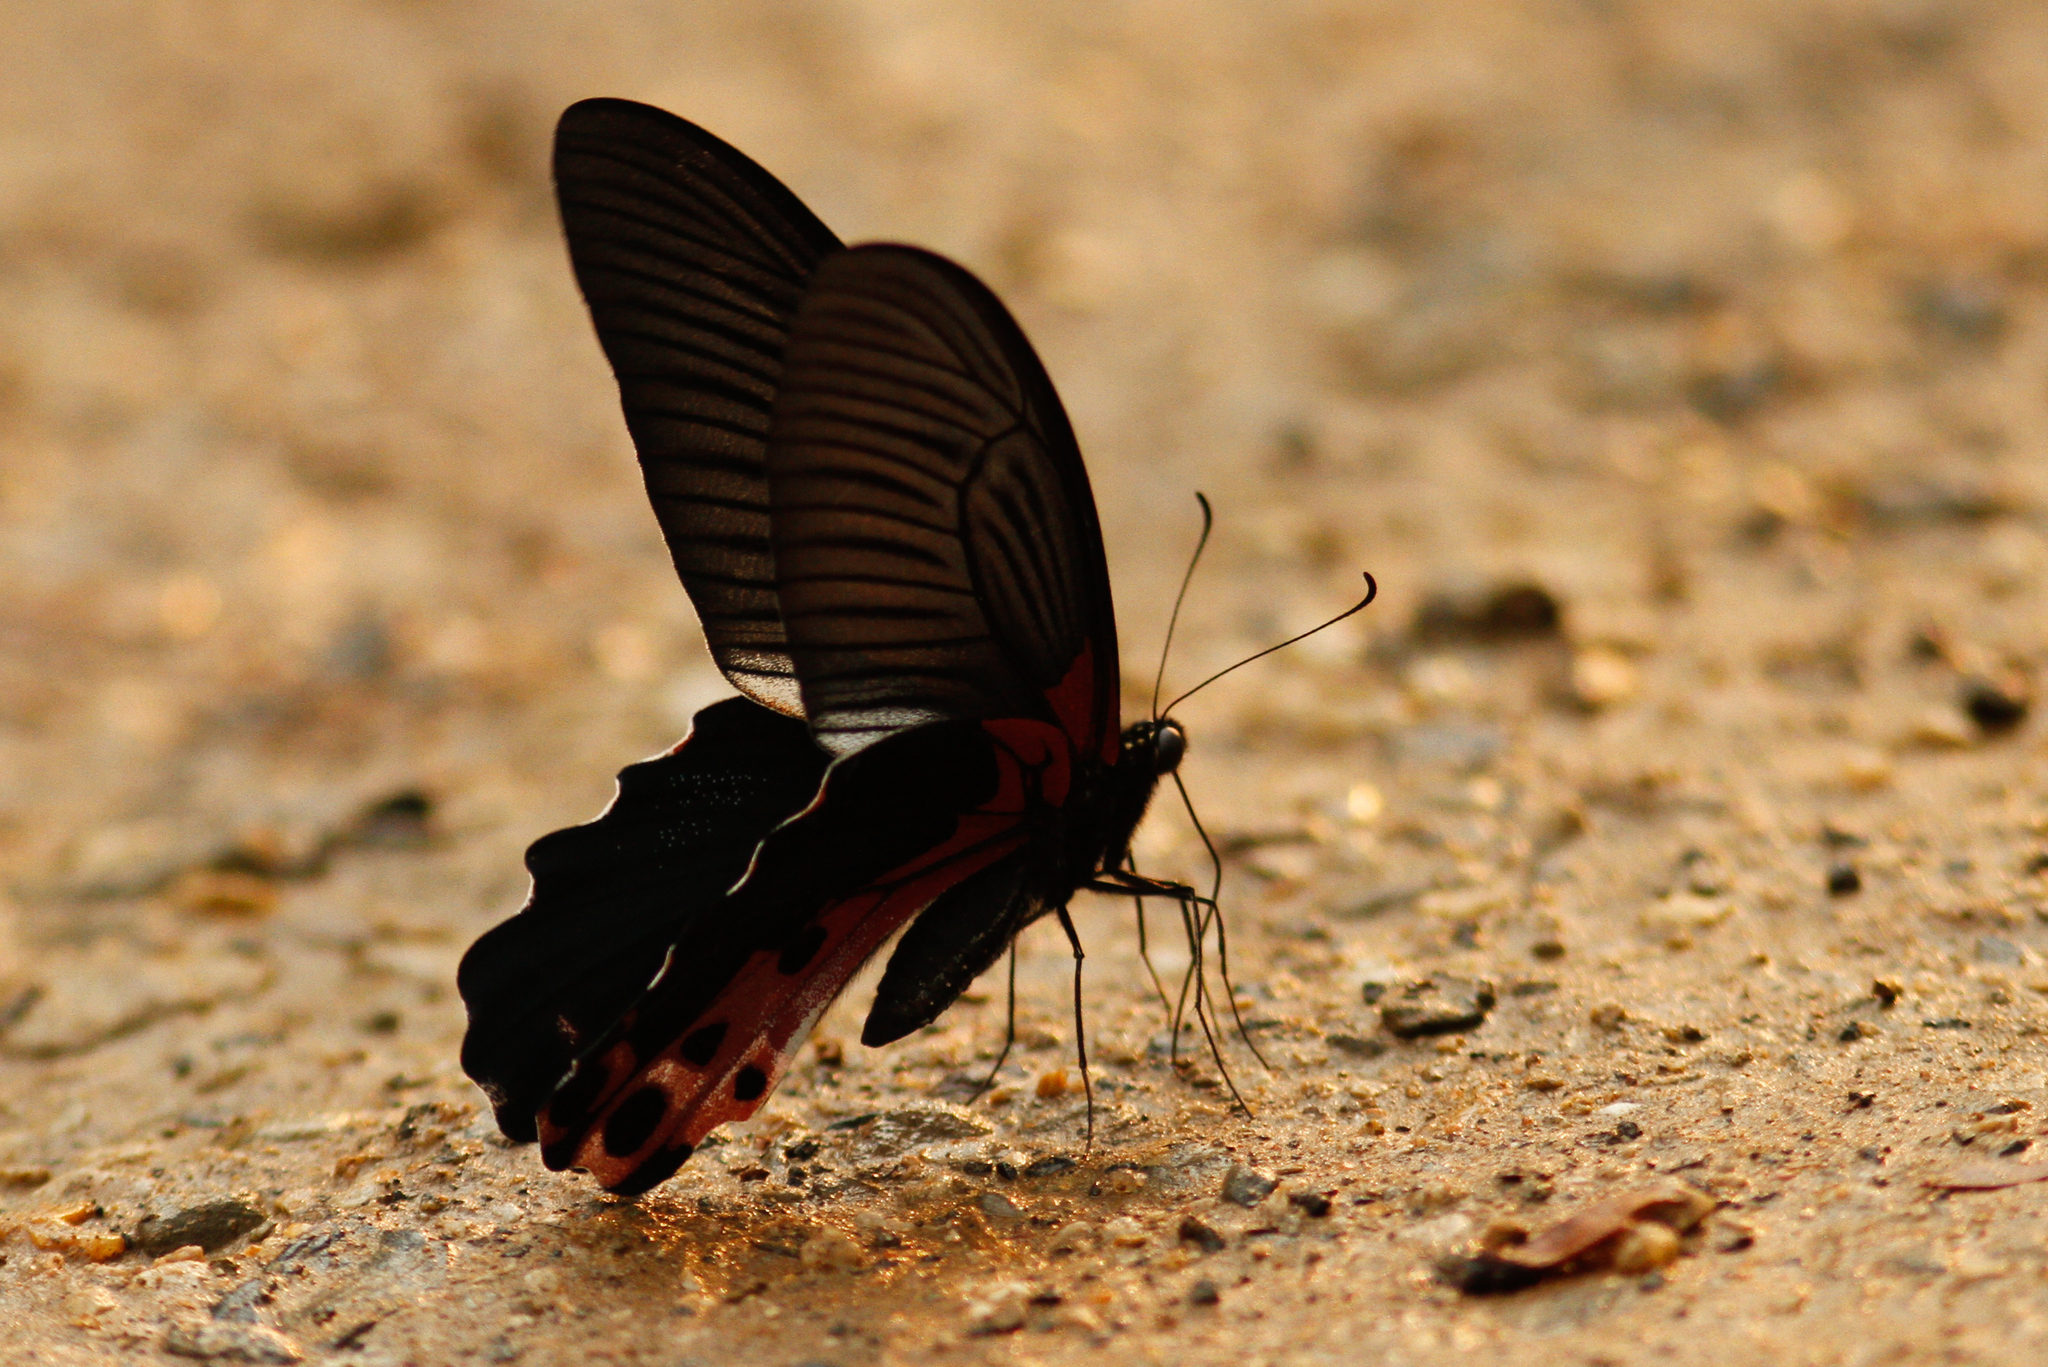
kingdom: Animalia
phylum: Arthropoda
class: Insecta
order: Lepidoptera
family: Papilionidae
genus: Papilio
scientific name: Papilio alcmenor
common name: Redbreast
